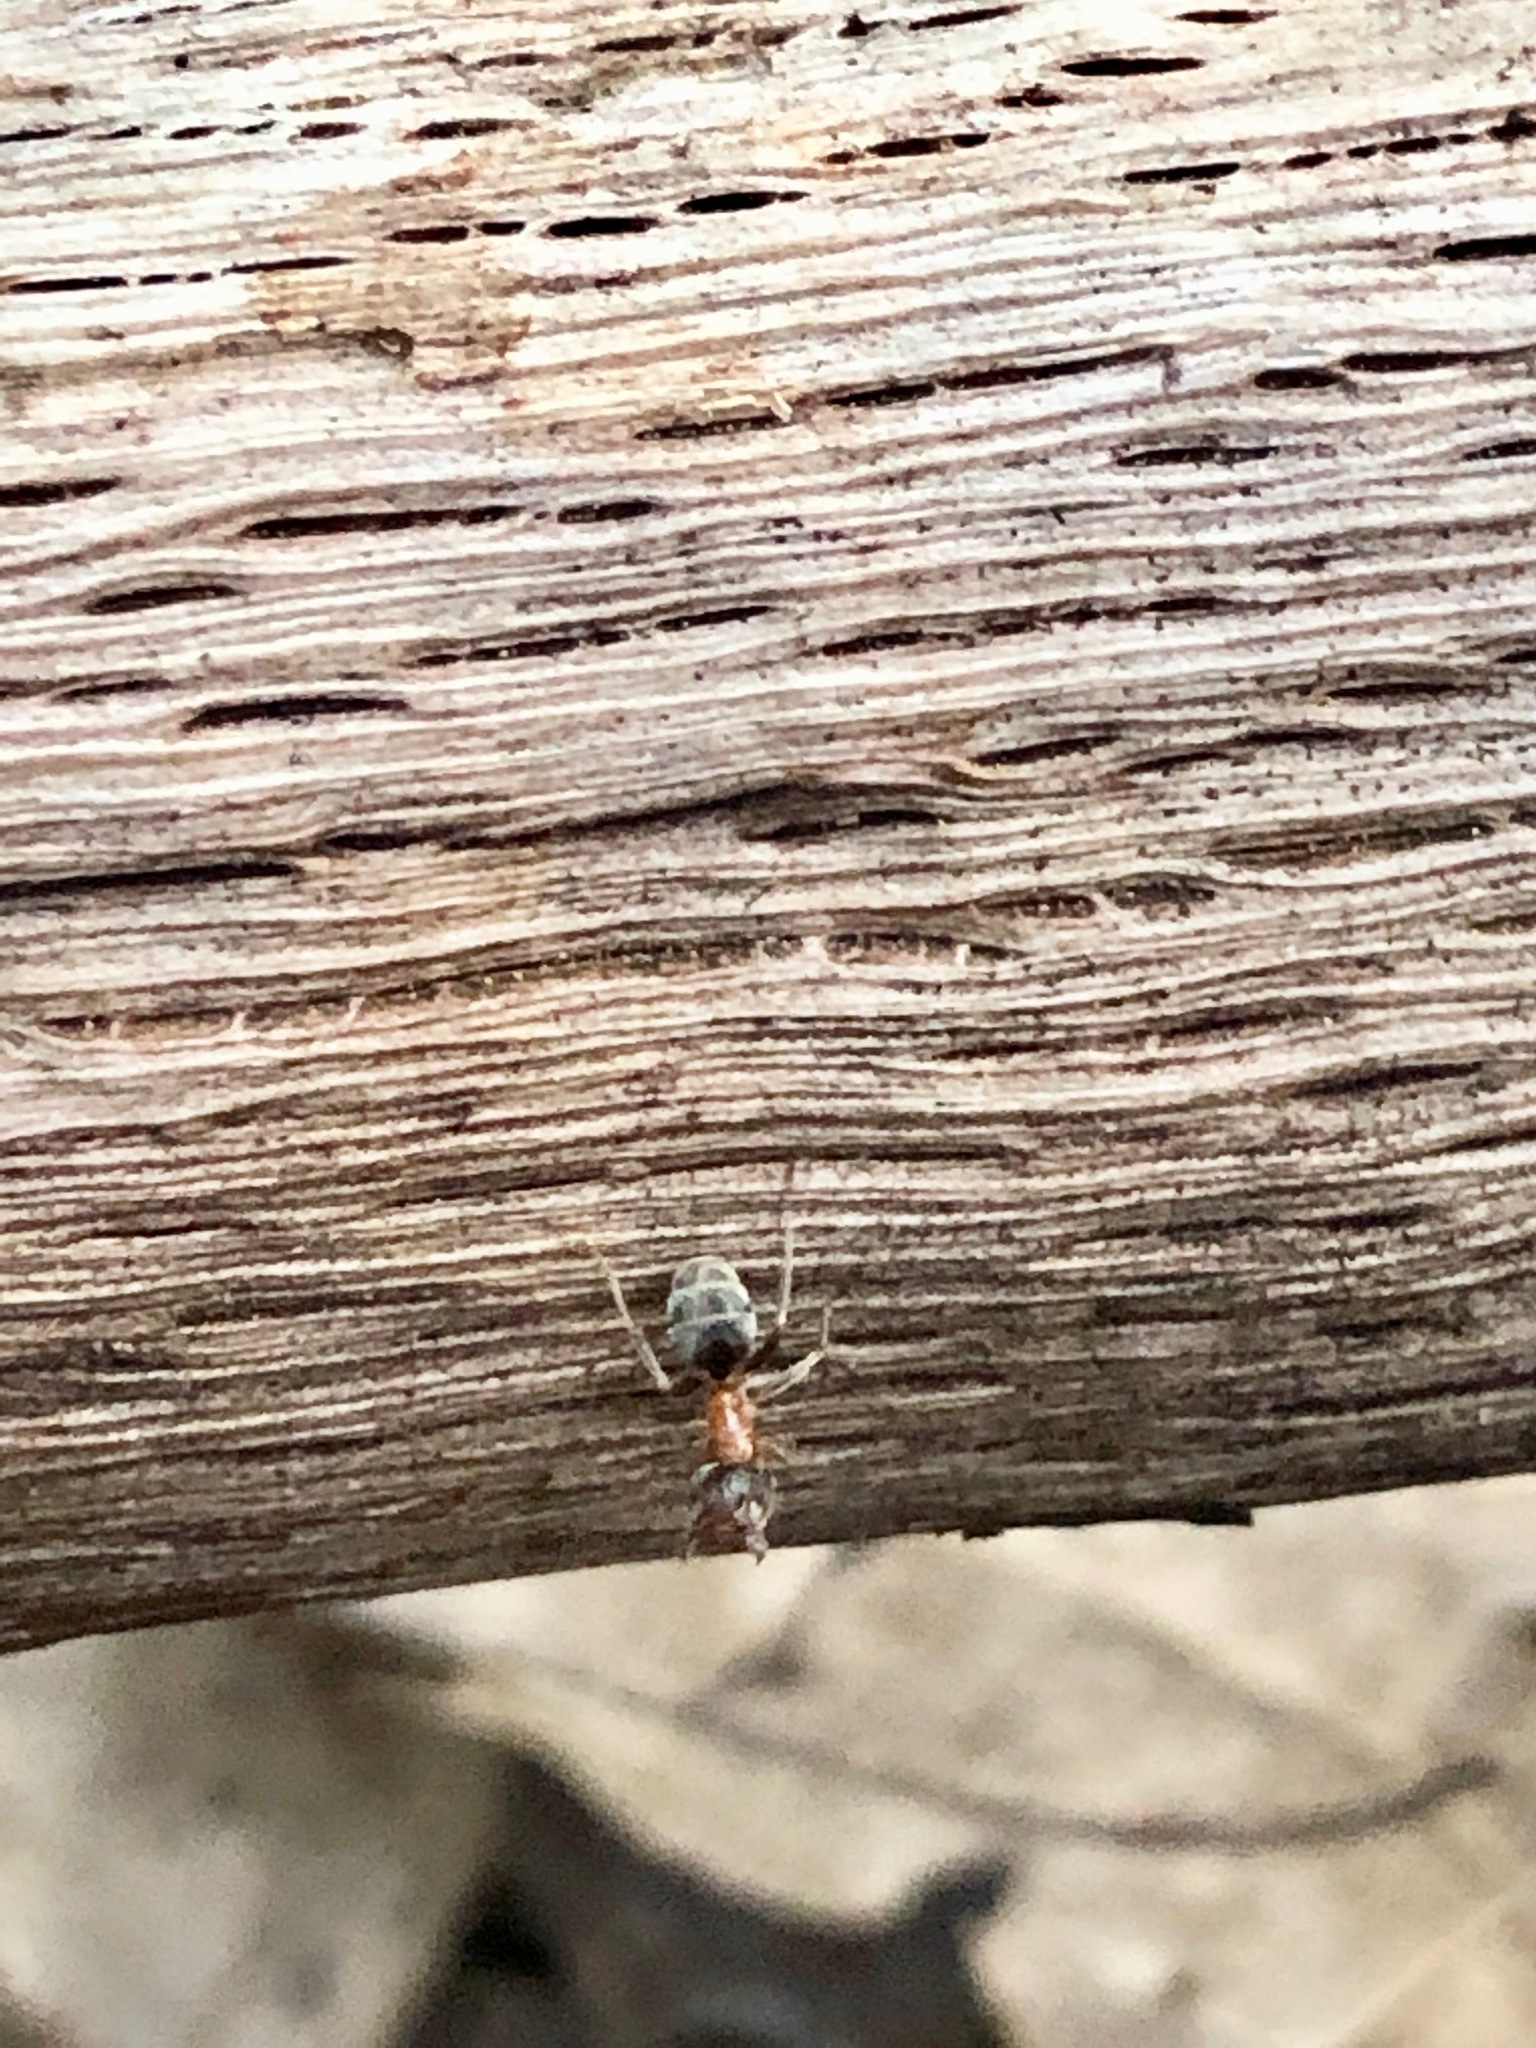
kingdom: Animalia
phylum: Arthropoda
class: Insecta
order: Hymenoptera
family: Formicidae
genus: Liometopum
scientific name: Liometopum occidentale
